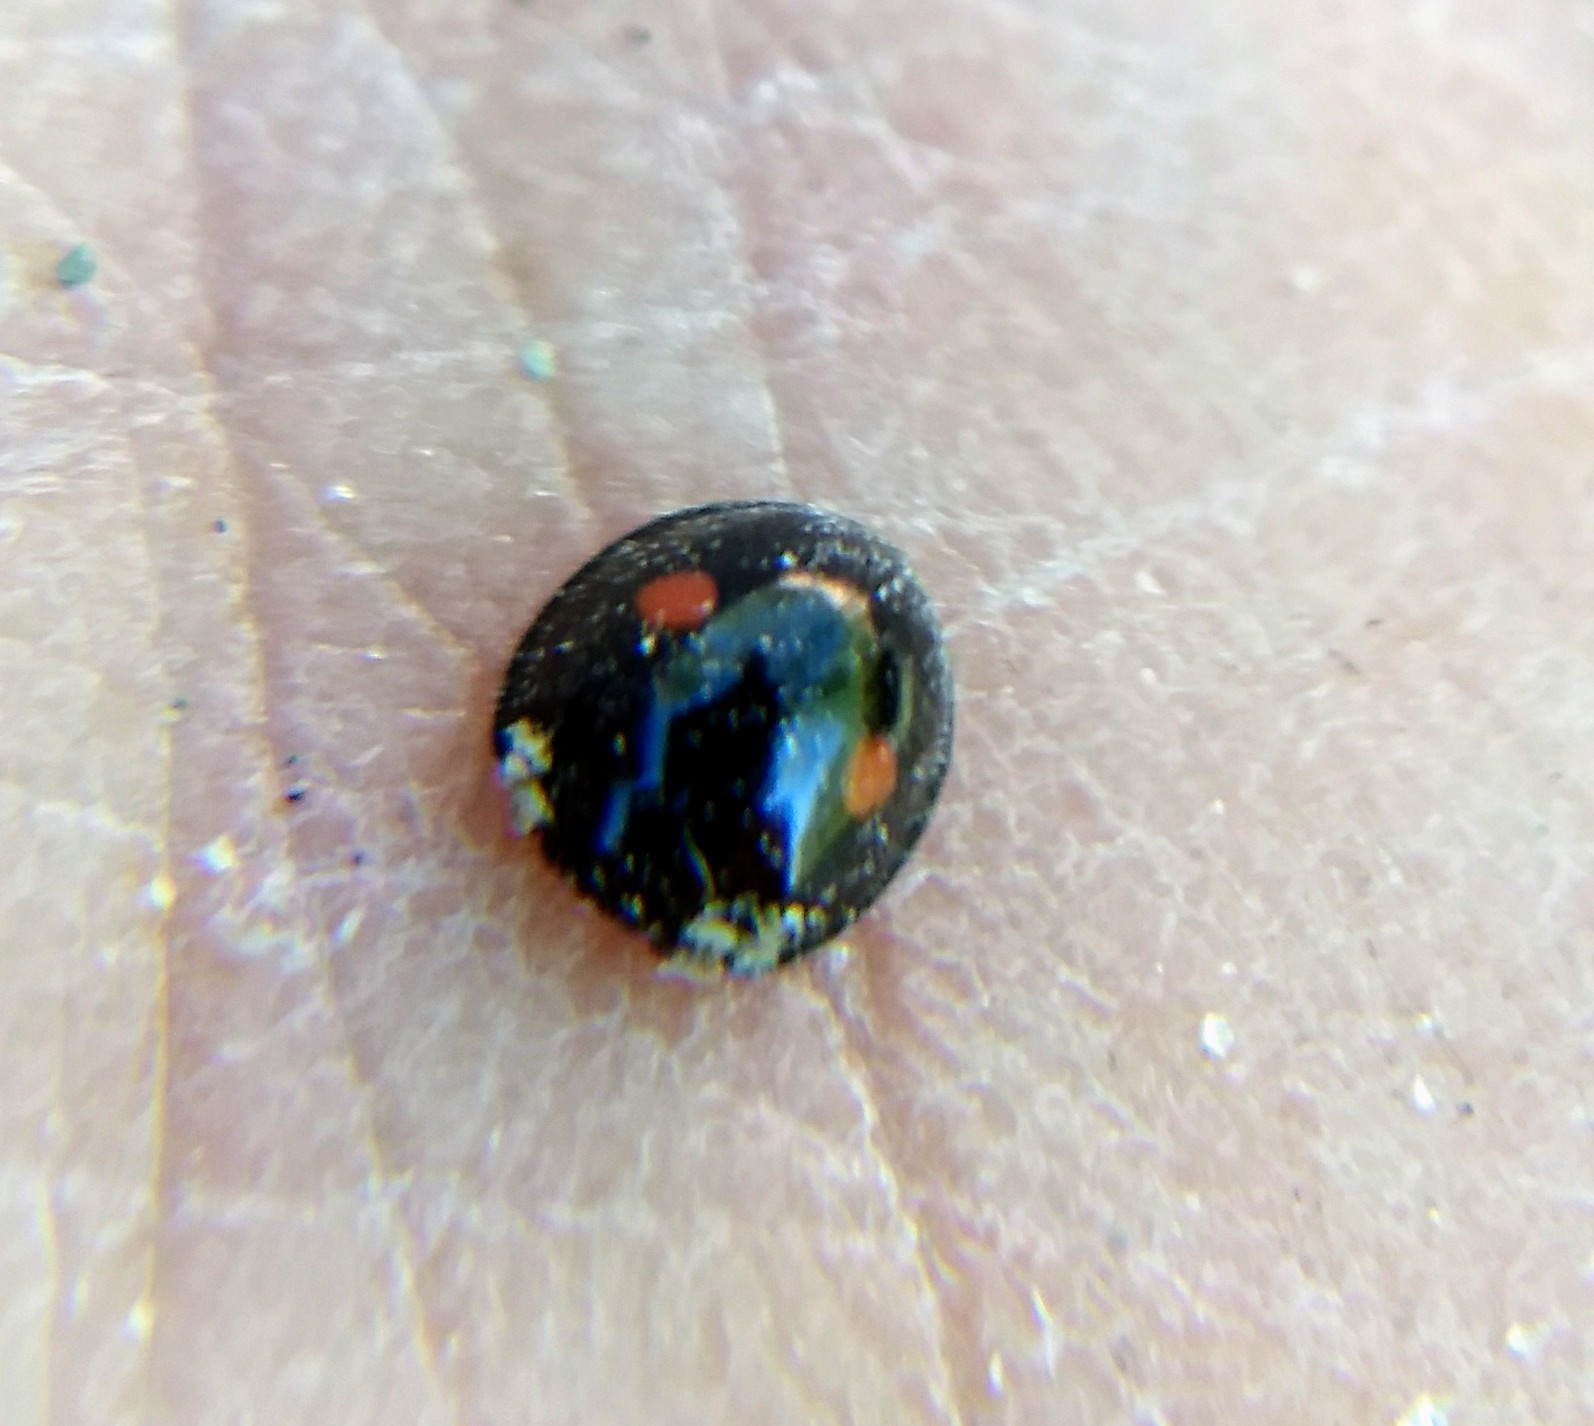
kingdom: Animalia
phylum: Arthropoda
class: Insecta
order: Coleoptera
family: Coccinellidae
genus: Chilocorus
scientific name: Chilocorus stigma
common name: Twicestabbed lady beetle
